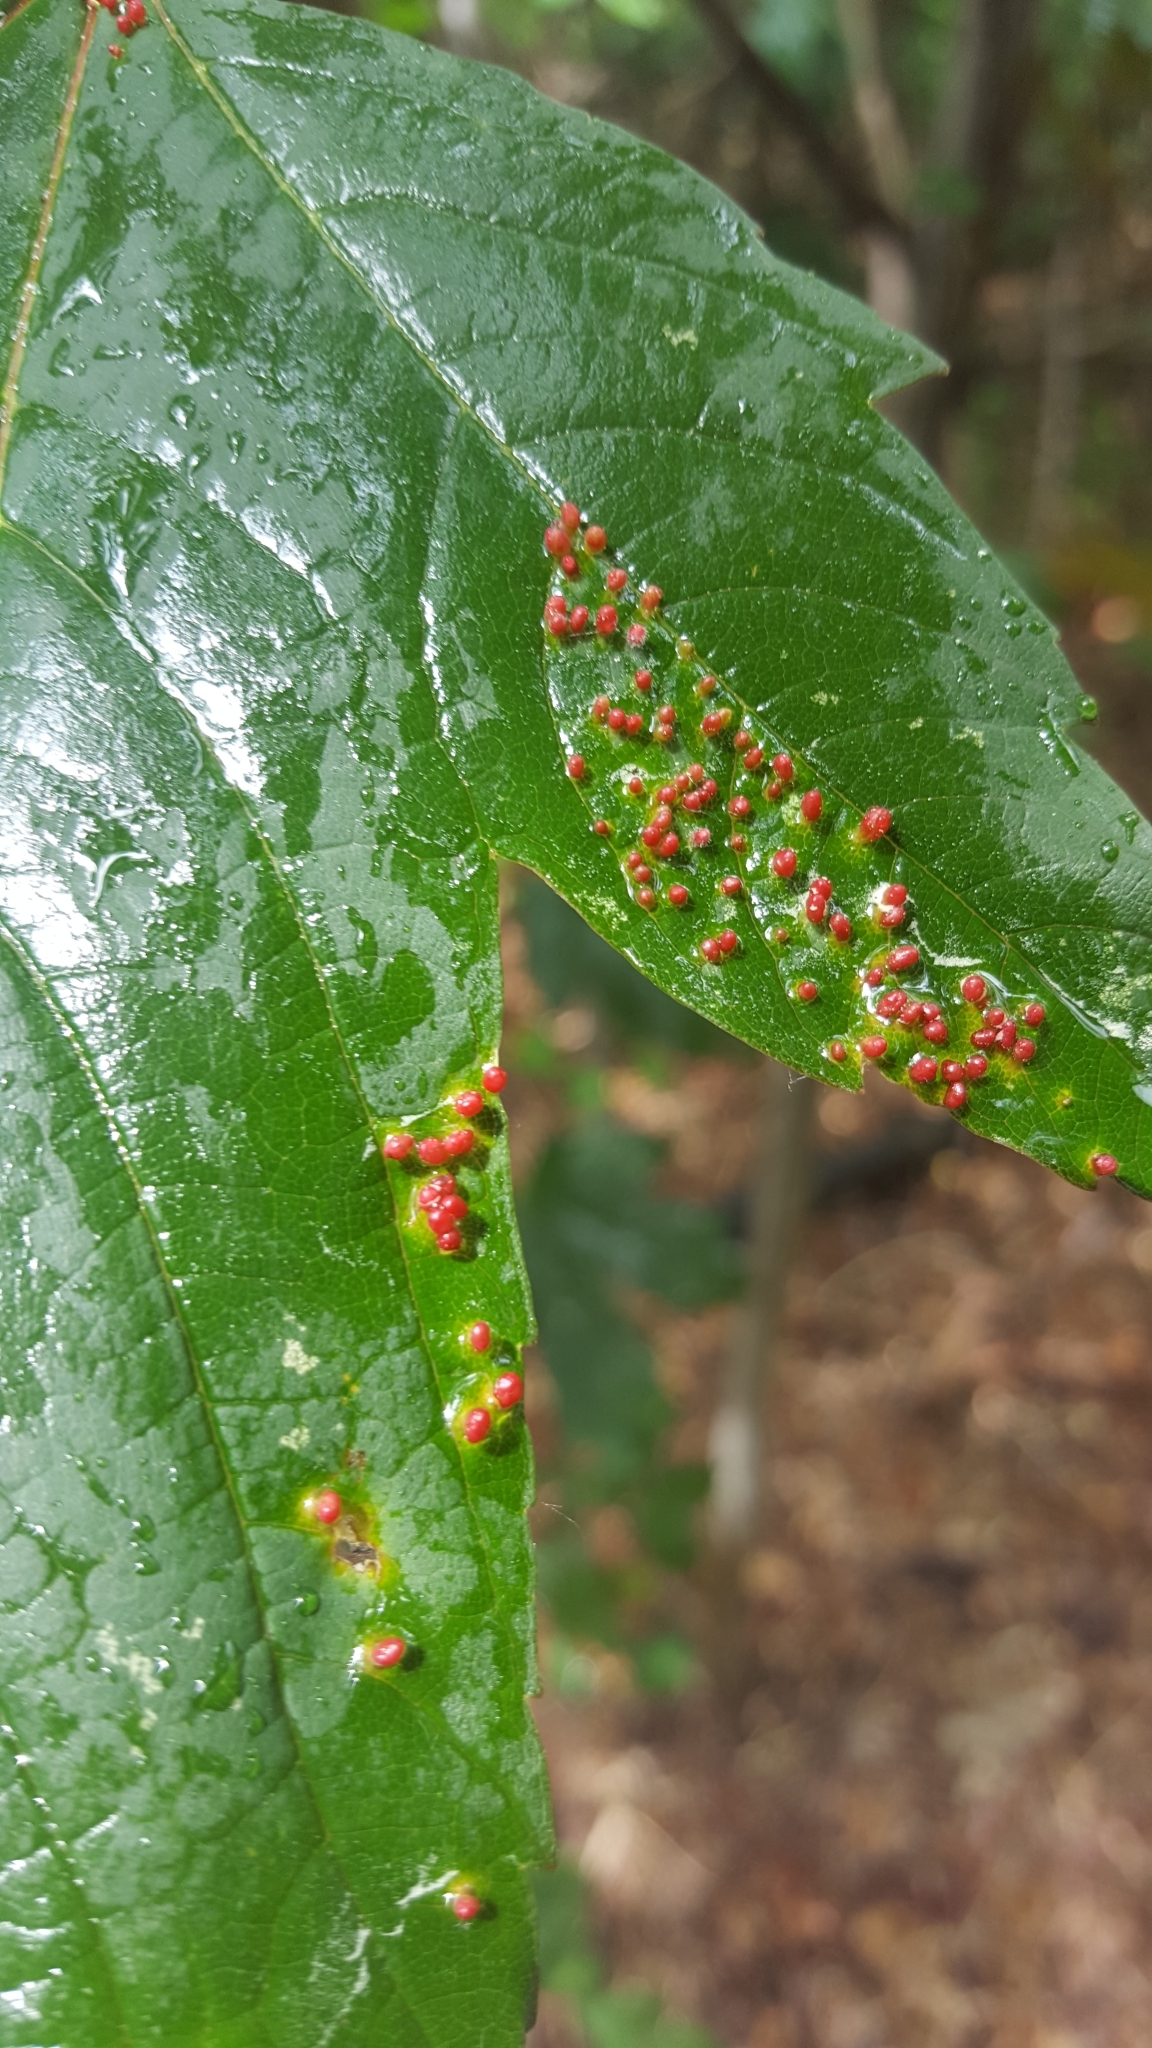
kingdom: Animalia
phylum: Arthropoda
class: Arachnida
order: Trombidiformes
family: Eriophyidae
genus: Aceria
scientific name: Aceria cephaloneus
